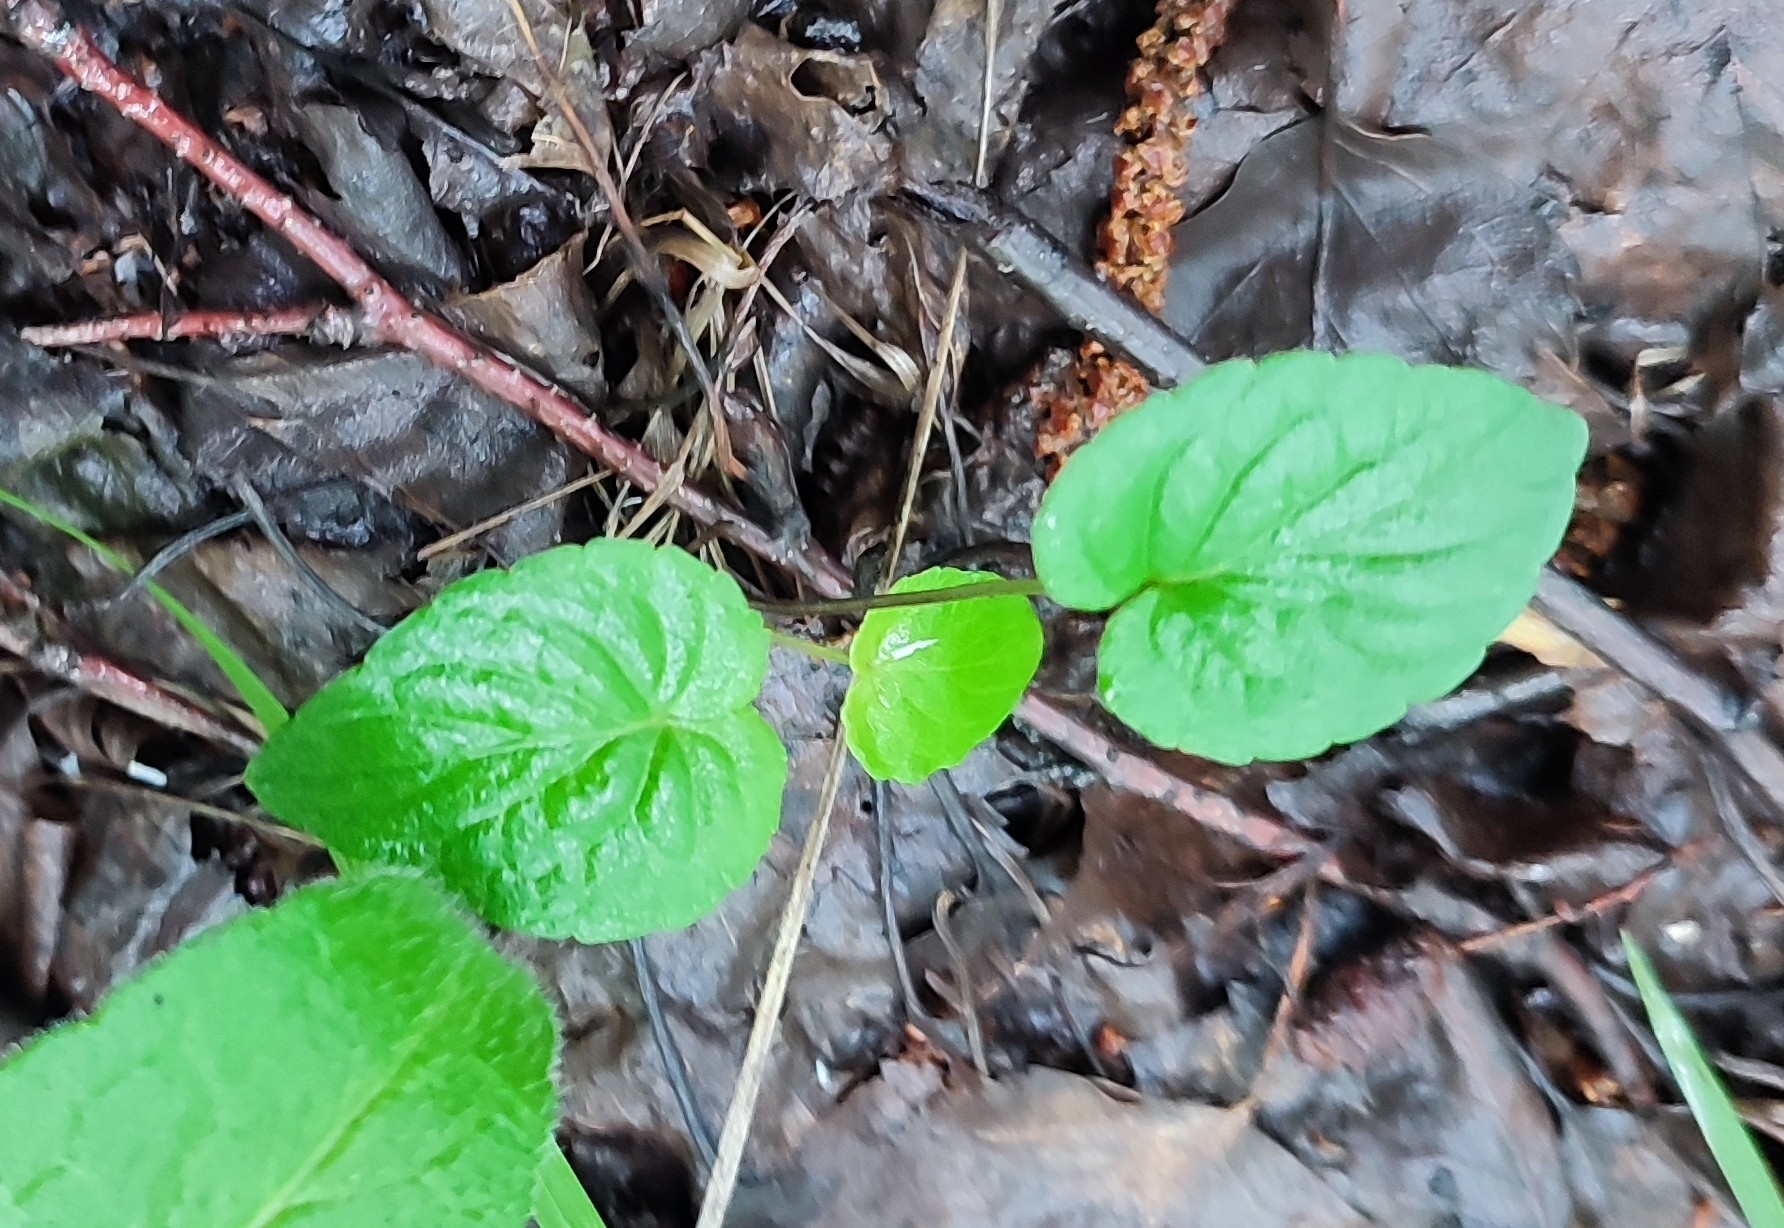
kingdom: Plantae
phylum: Tracheophyta
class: Magnoliopsida
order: Malpighiales
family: Violaceae
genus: Viola
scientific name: Viola
